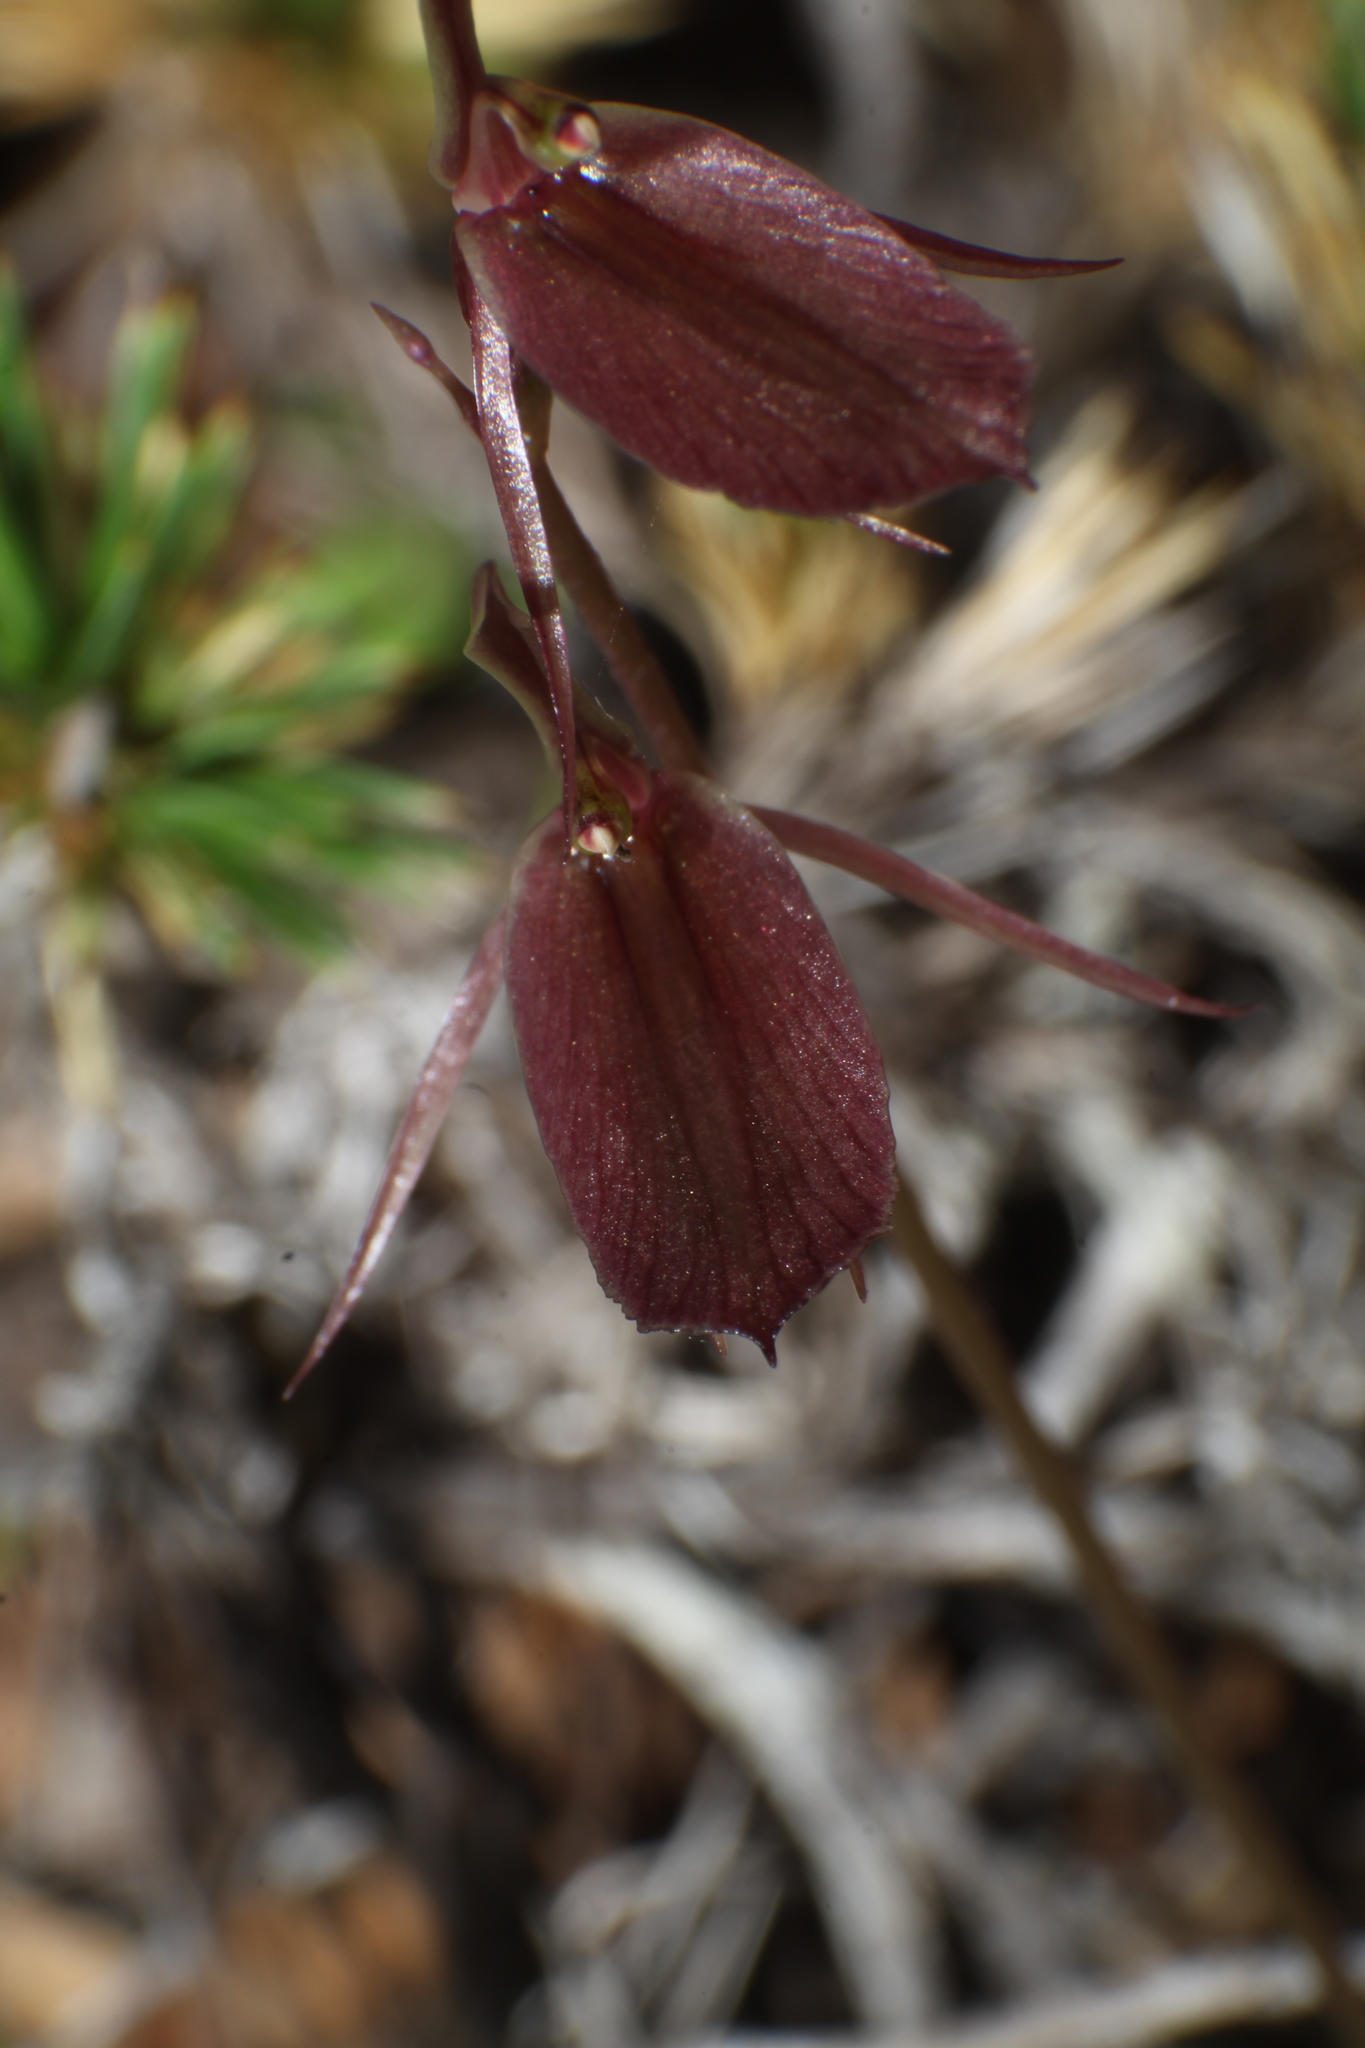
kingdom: Plantae
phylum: Tracheophyta
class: Liliopsida
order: Asparagales
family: Orchidaceae
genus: Cyrtostylis
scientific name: Cyrtostylis robusta
